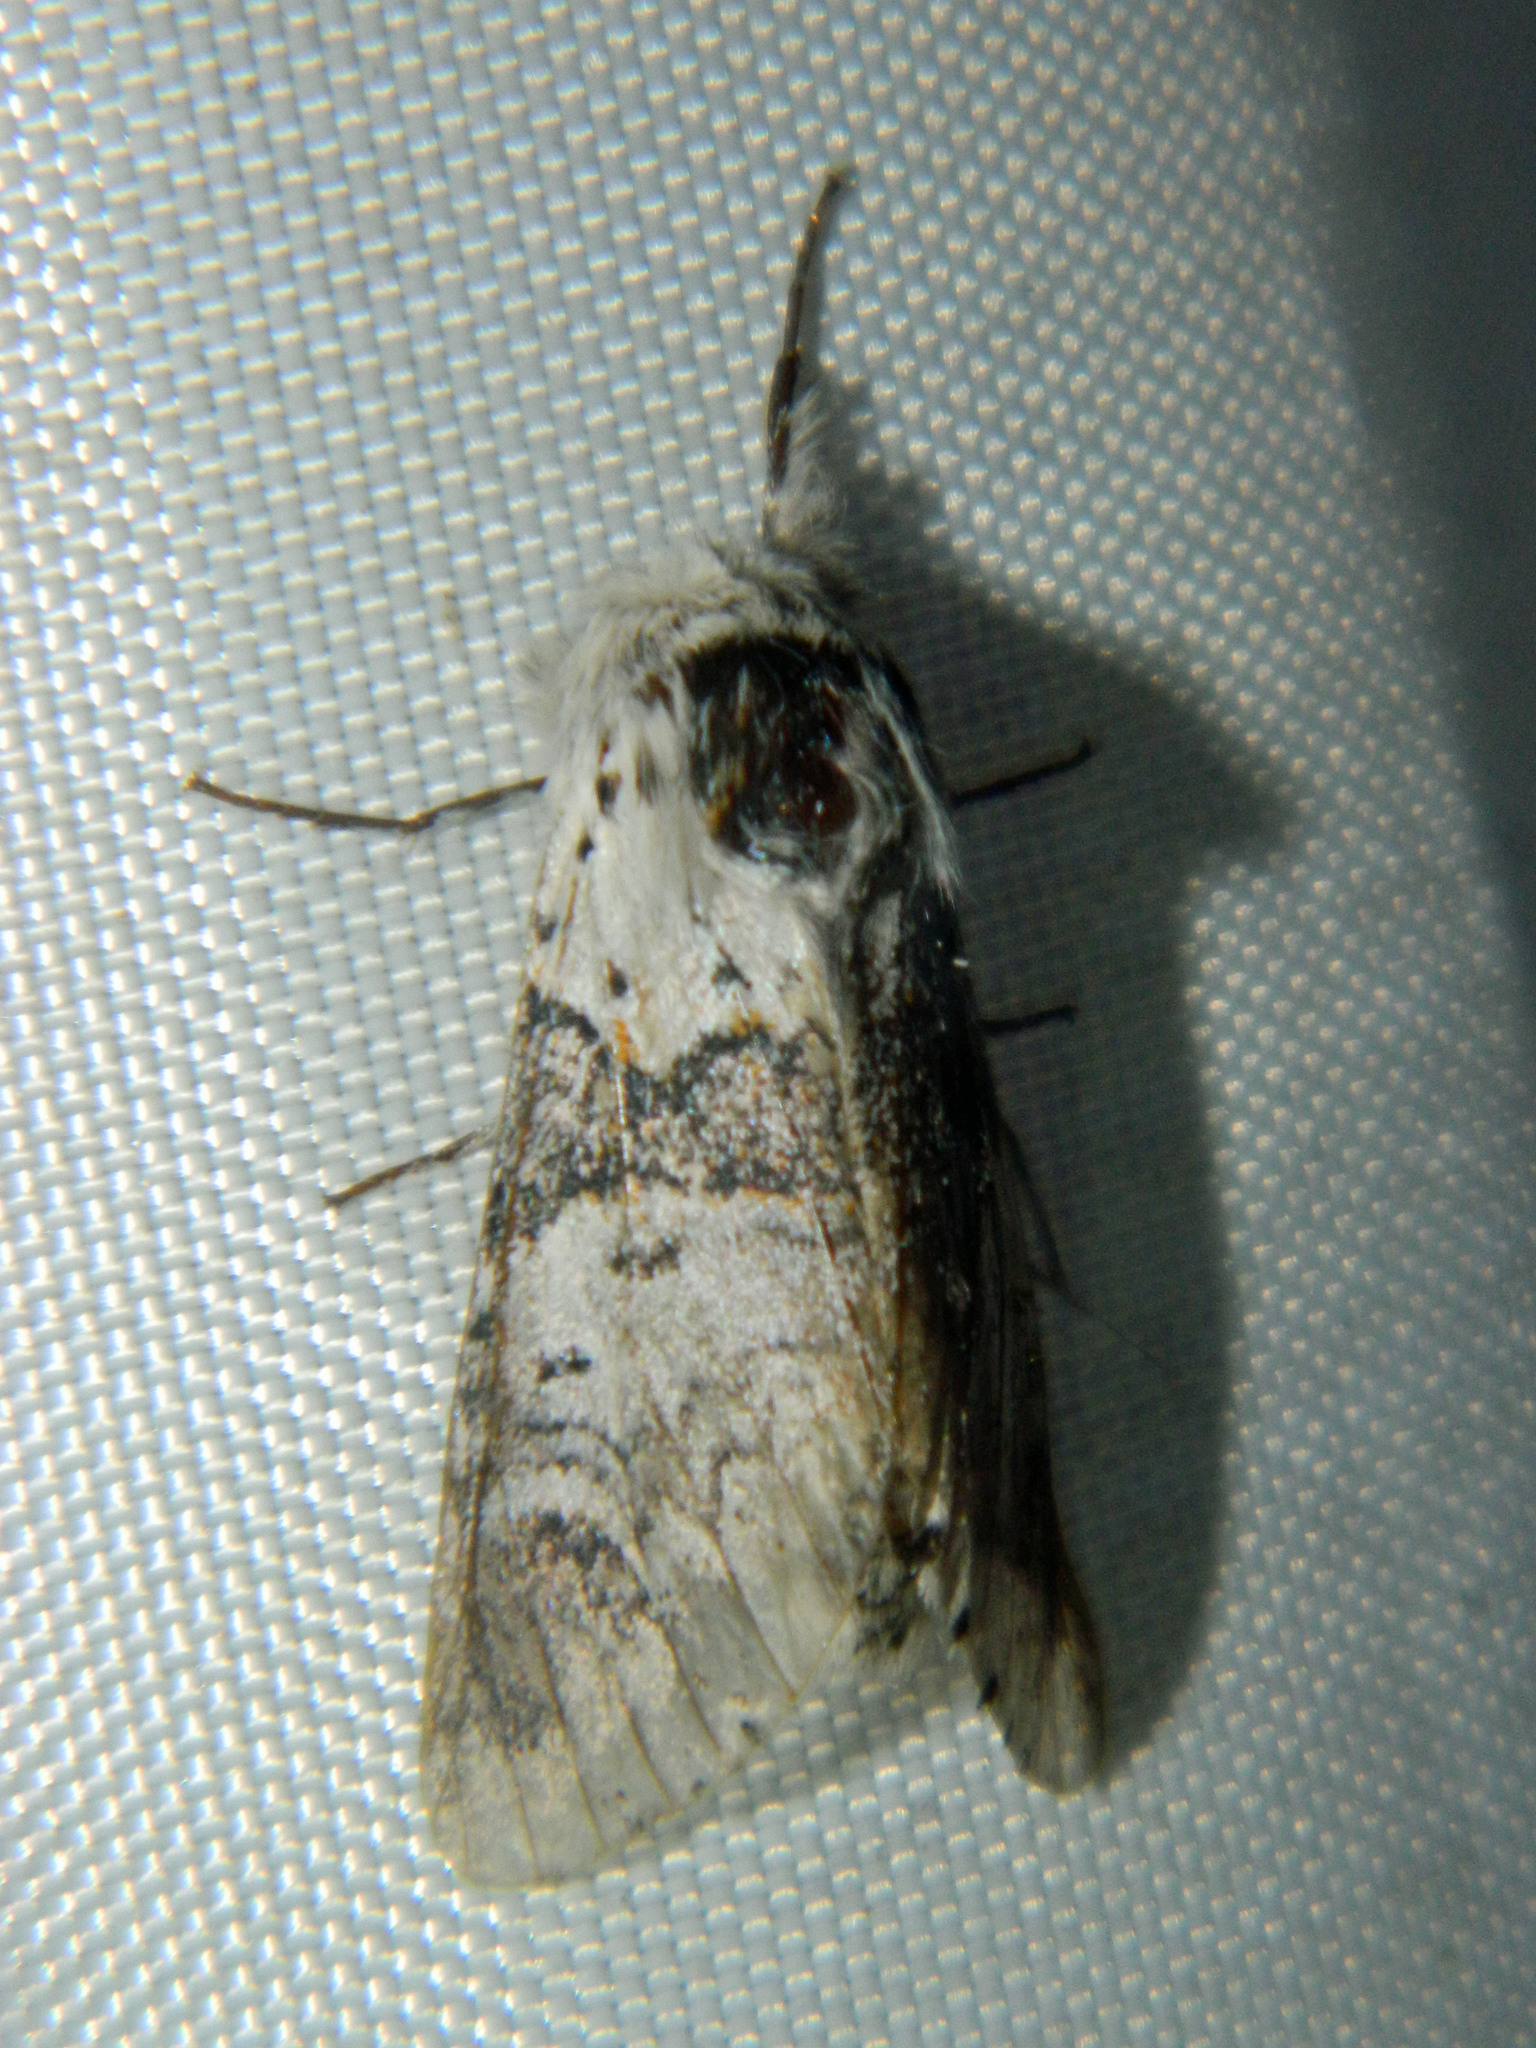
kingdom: Animalia
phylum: Arthropoda
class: Insecta
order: Lepidoptera
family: Notodontidae
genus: Furcula
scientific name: Furcula occidentalis
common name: Western furcula moth
